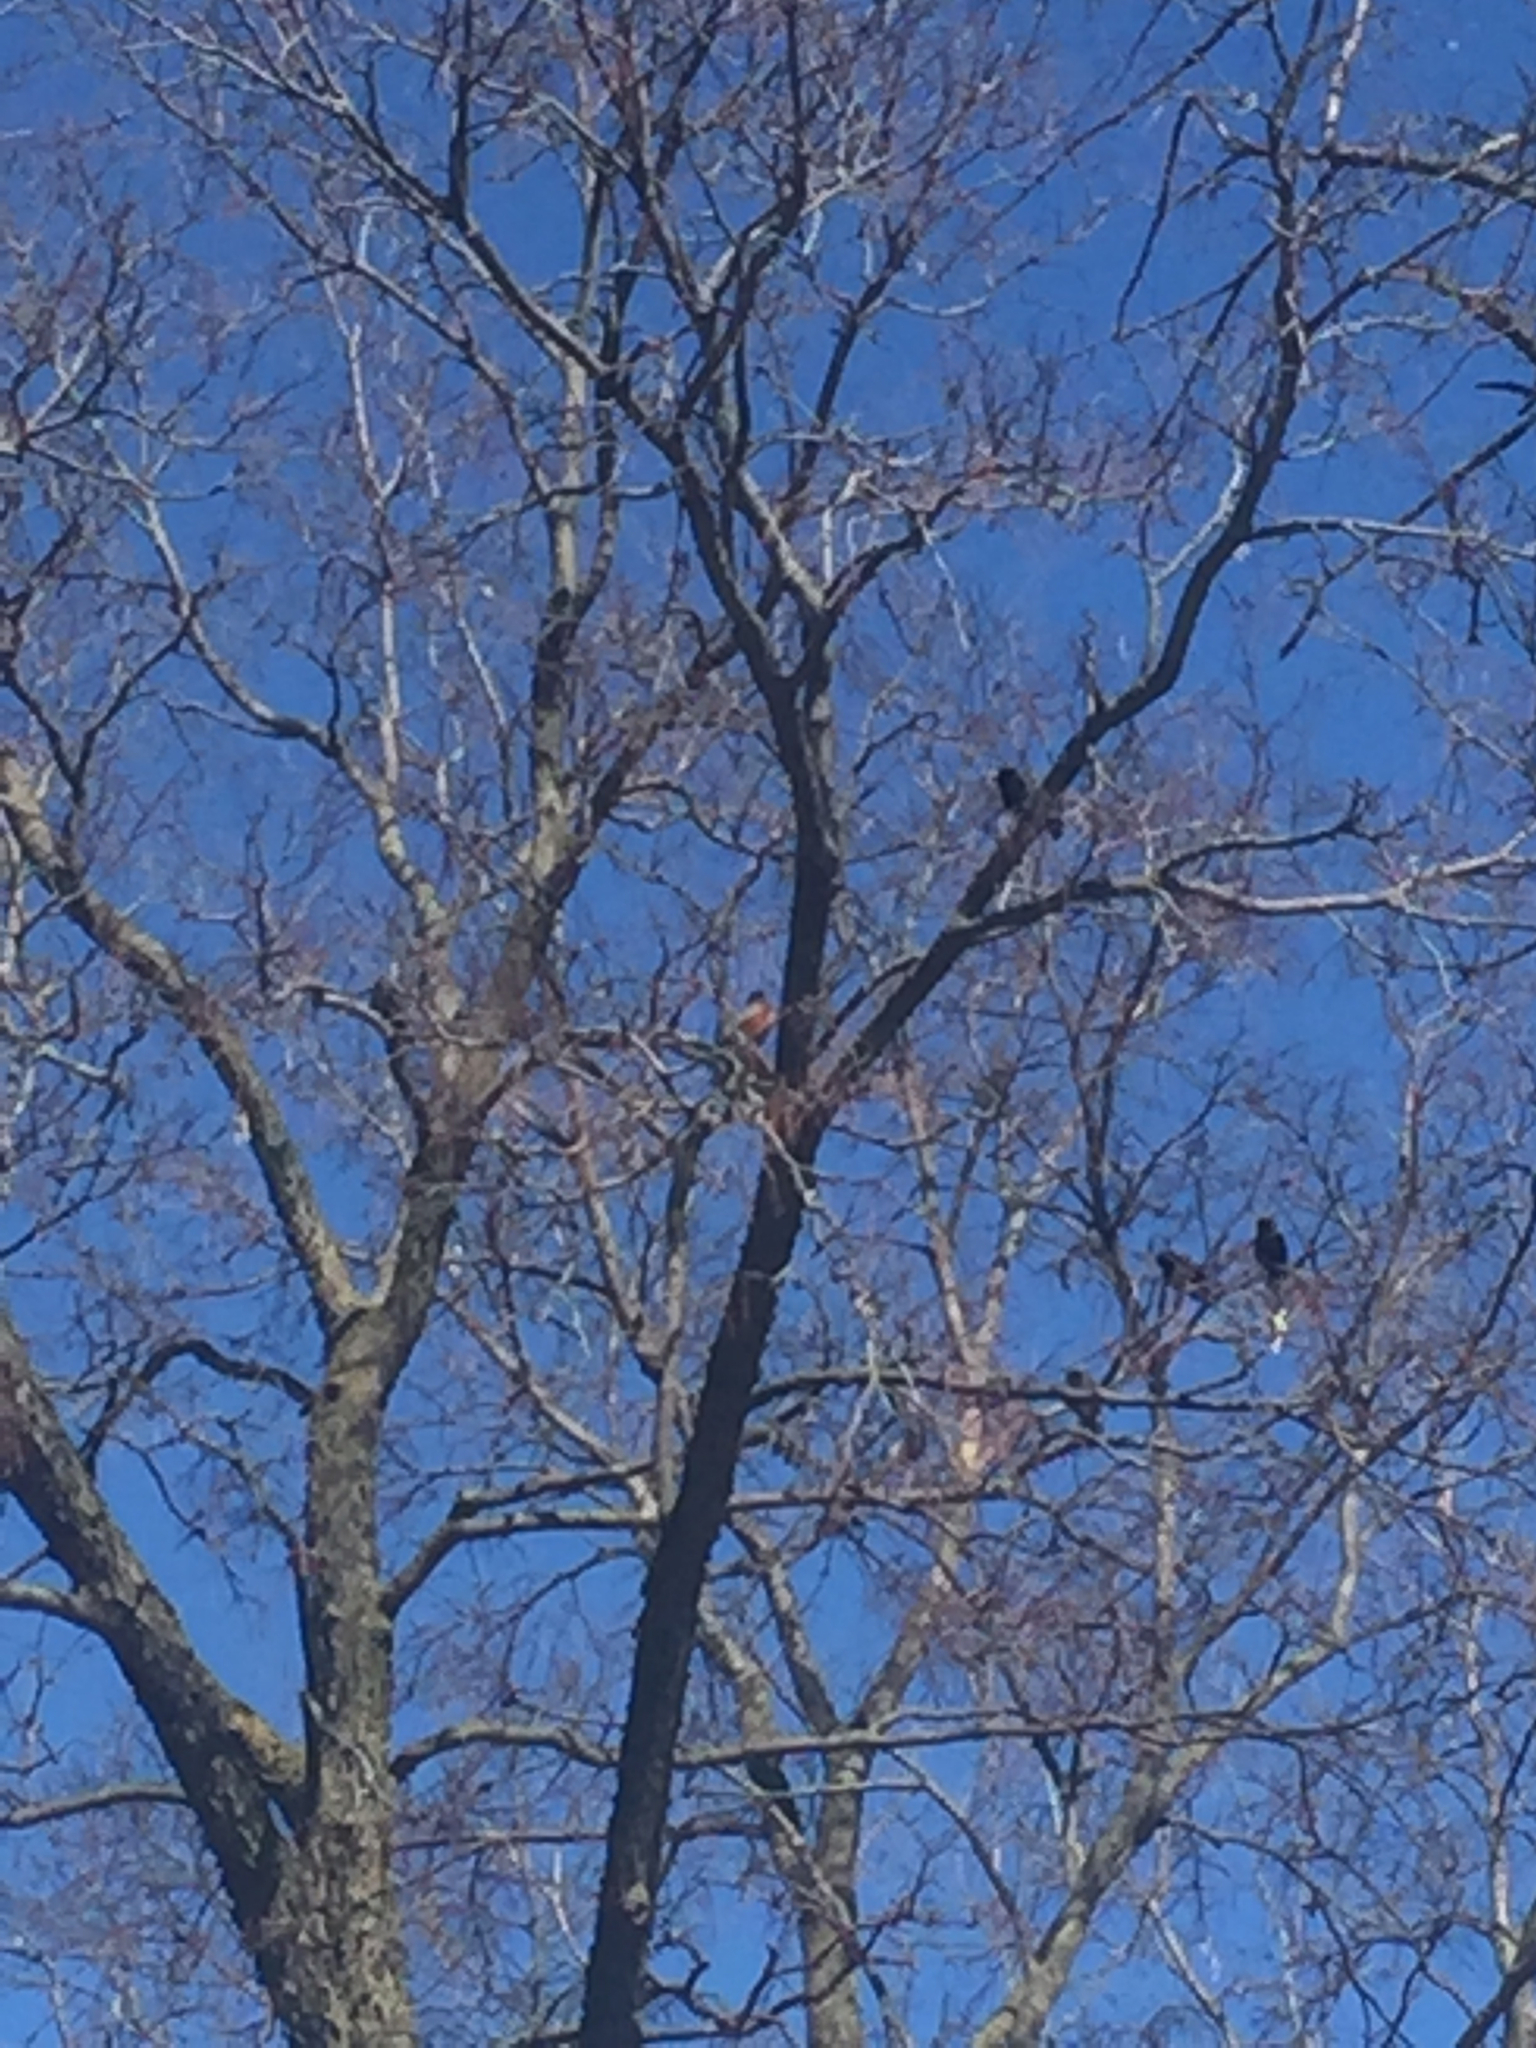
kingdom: Animalia
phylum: Chordata
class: Aves
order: Passeriformes
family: Turdidae
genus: Turdus
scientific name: Turdus migratorius
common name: American robin
